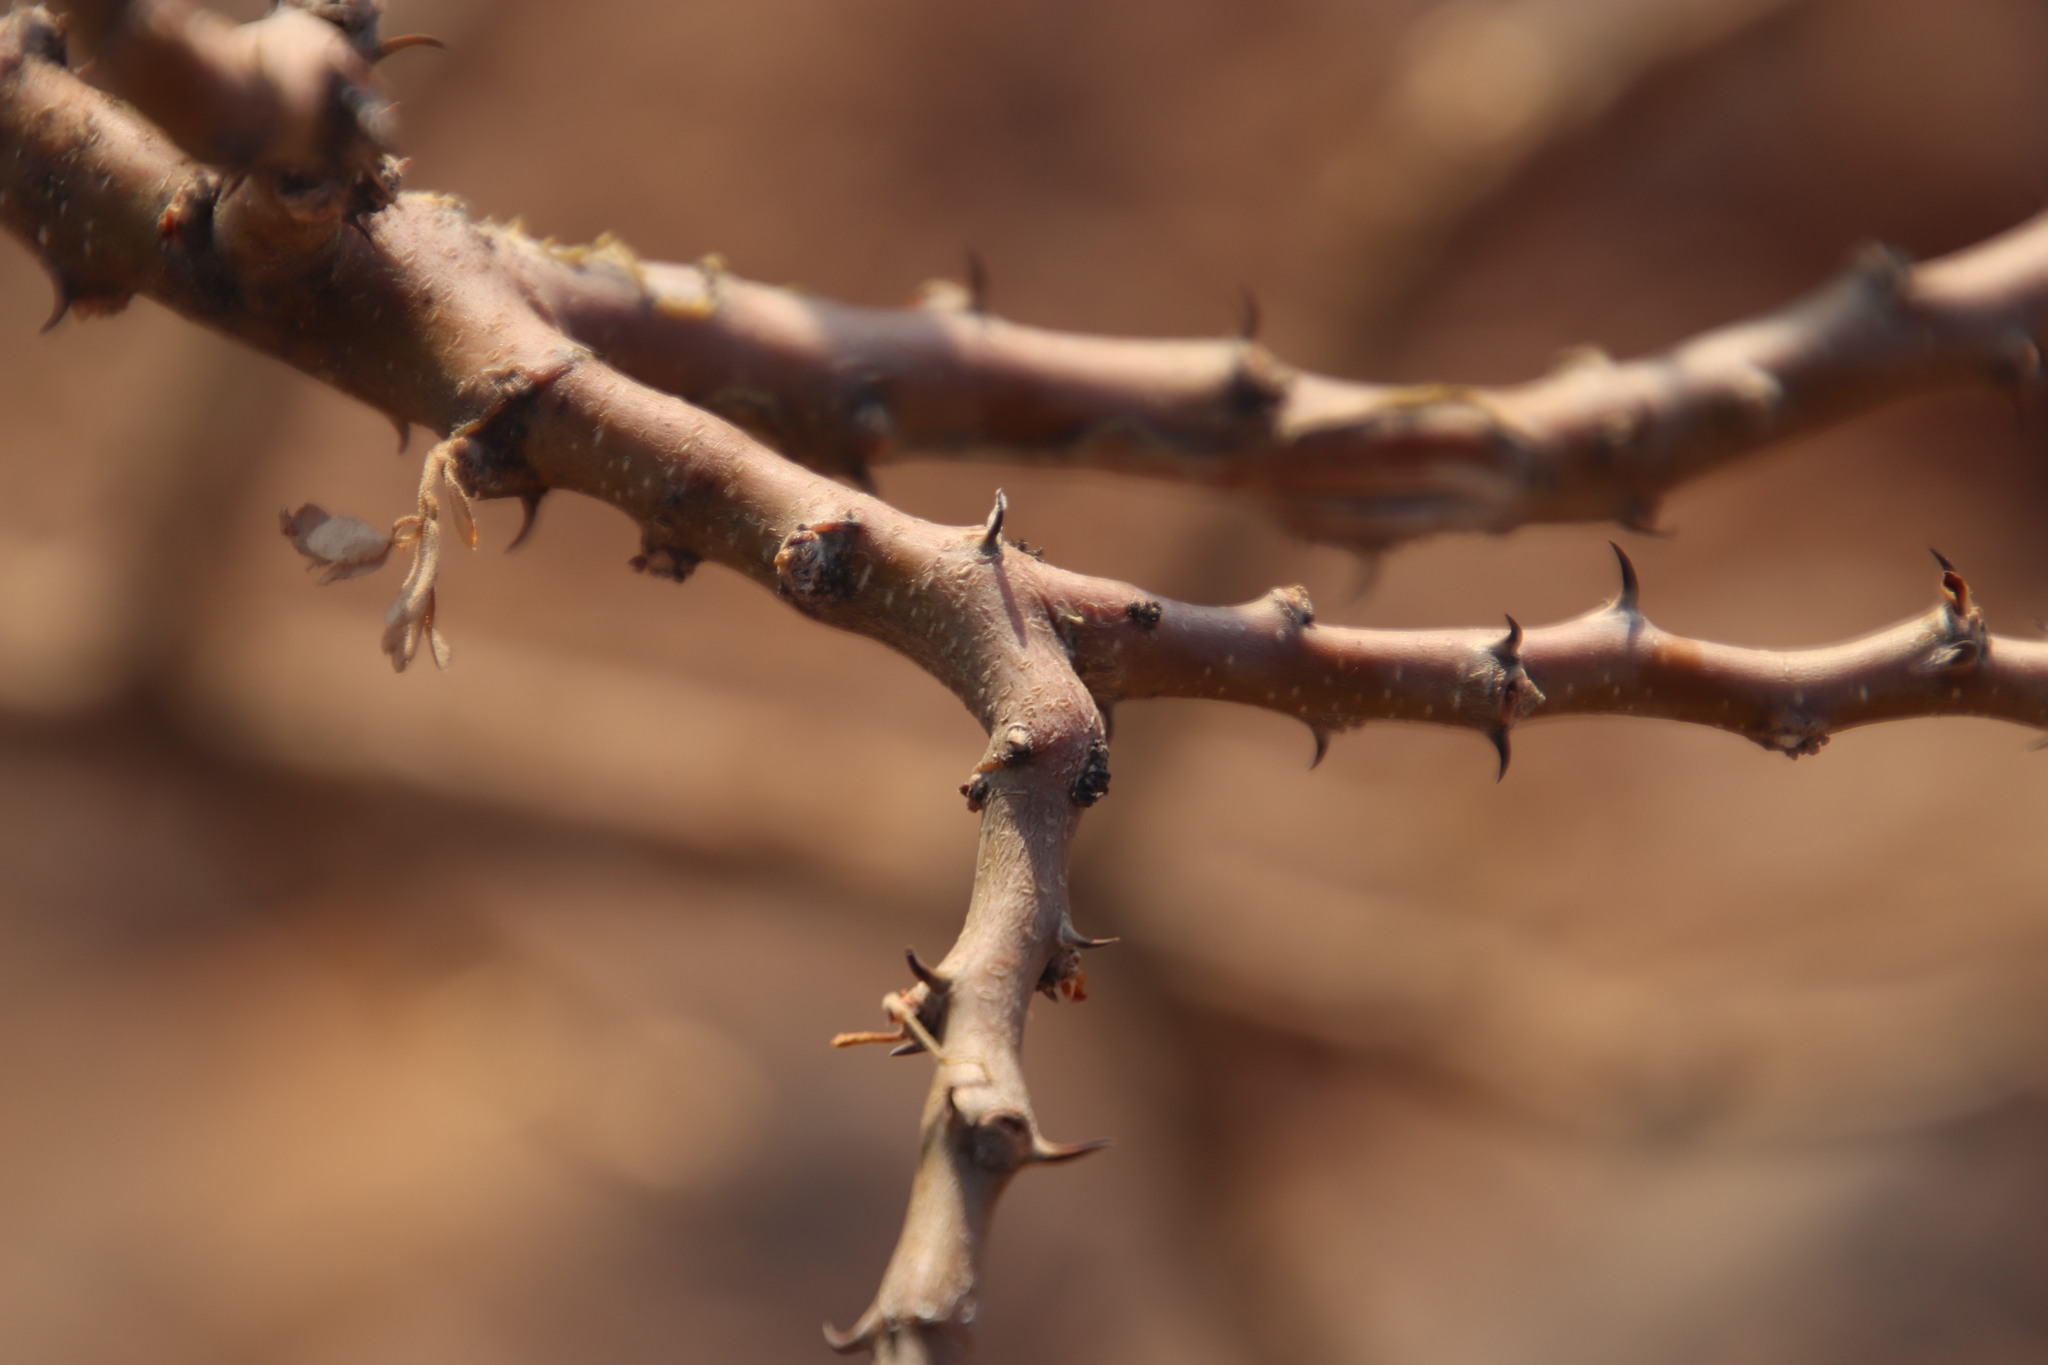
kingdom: Plantae
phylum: Tracheophyta
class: Magnoliopsida
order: Fabales
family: Fabaceae
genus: Senegalia
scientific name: Senegalia mellifera
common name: Hookthorn
